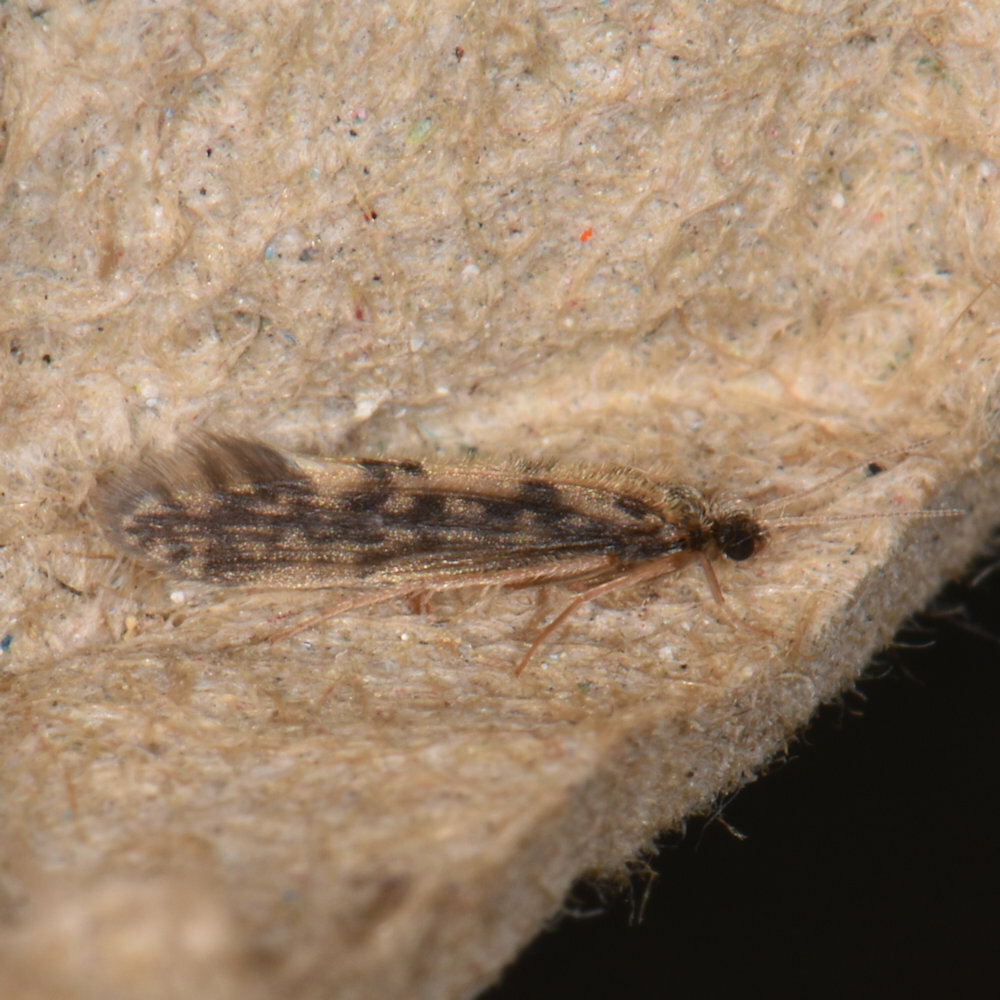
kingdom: Animalia
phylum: Arthropoda
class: Insecta
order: Trichoptera
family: Hydroptilidae
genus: Agraylea
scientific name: Agraylea multipunctata
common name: Salt and pepper microcaddisfly
